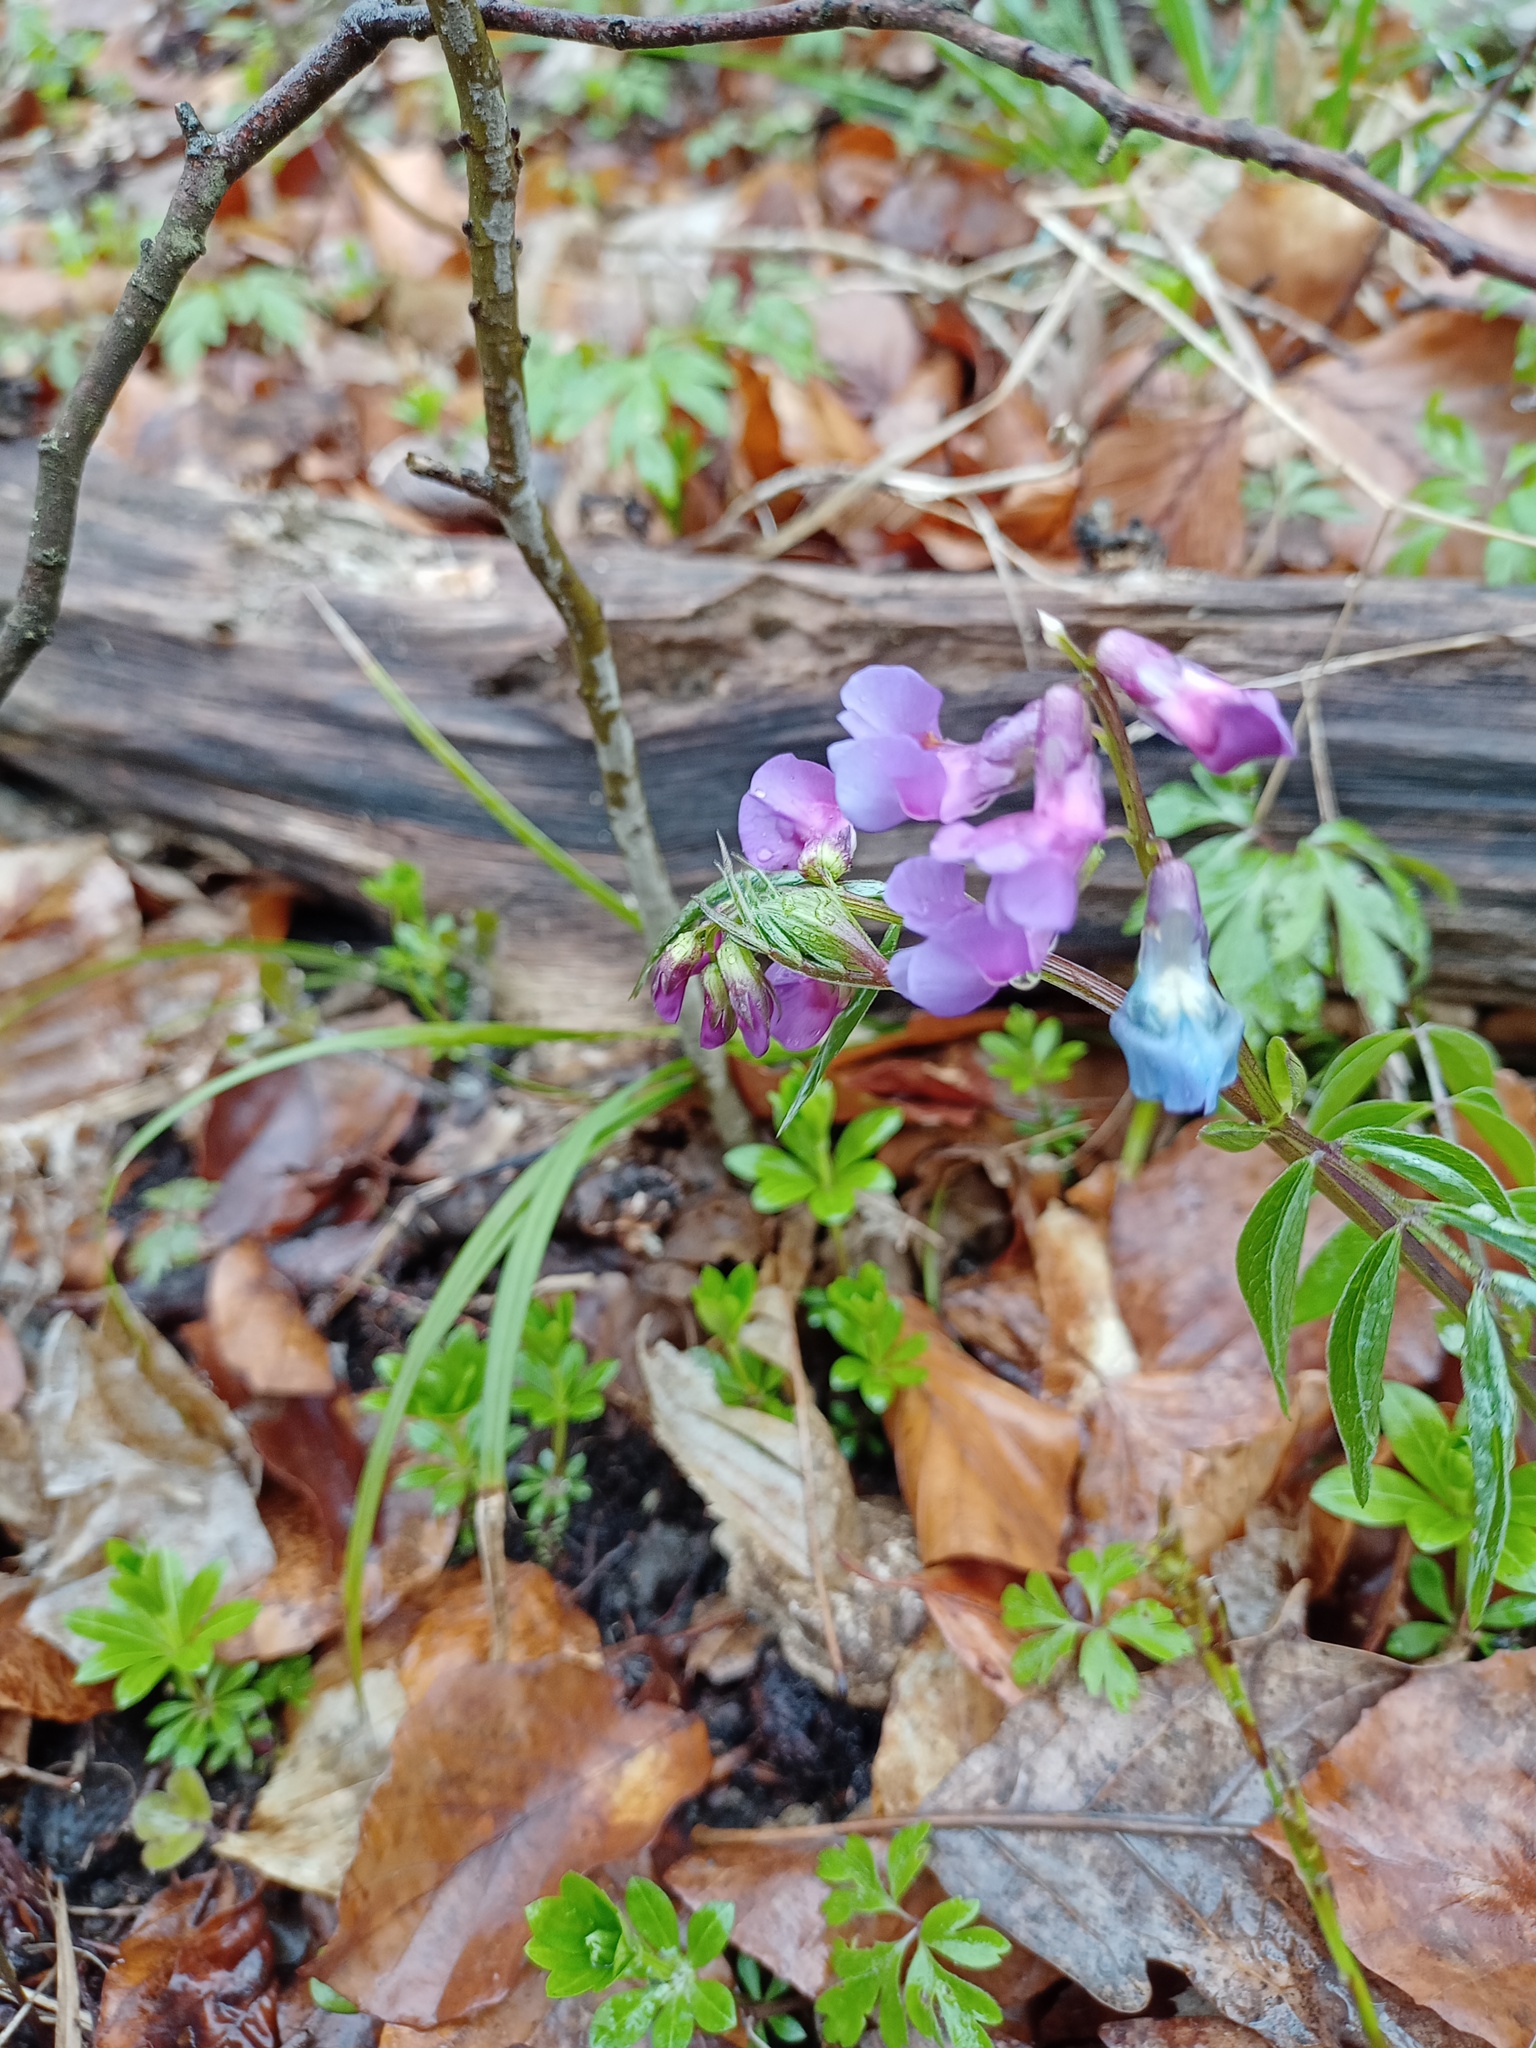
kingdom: Plantae
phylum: Tracheophyta
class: Magnoliopsida
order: Fabales
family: Fabaceae
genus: Lathyrus
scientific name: Lathyrus vernus
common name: Spring pea
